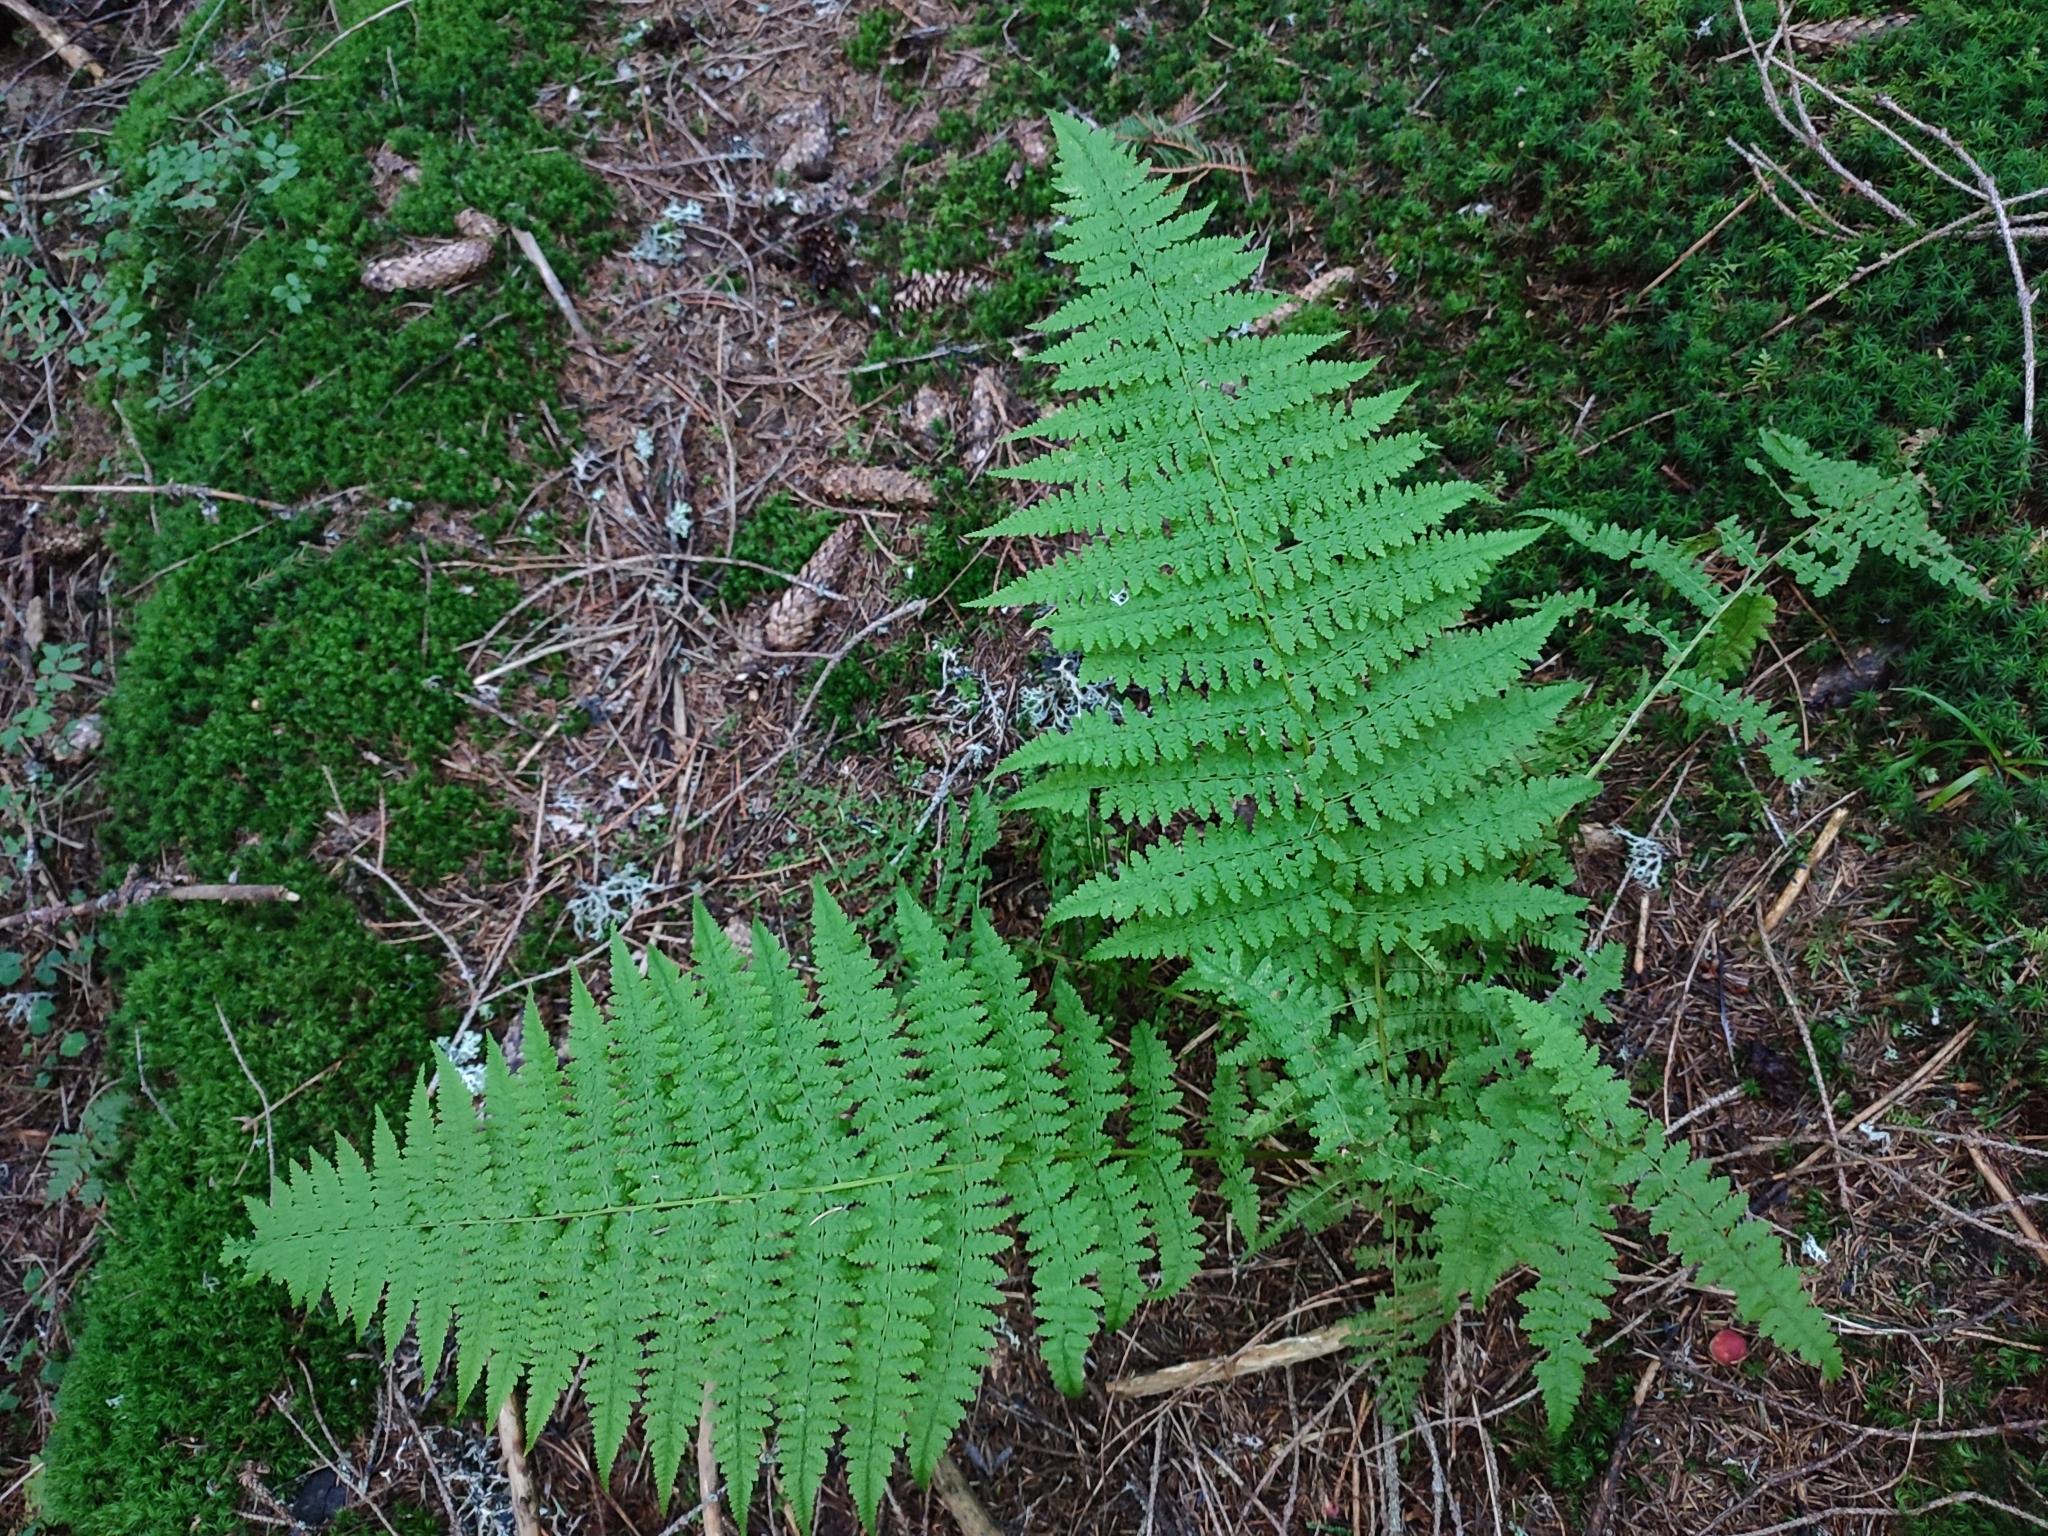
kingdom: Plantae
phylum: Tracheophyta
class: Polypodiopsida
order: Polypodiales
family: Athyriaceae
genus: Pseudathyrium
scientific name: Pseudathyrium alpestre
